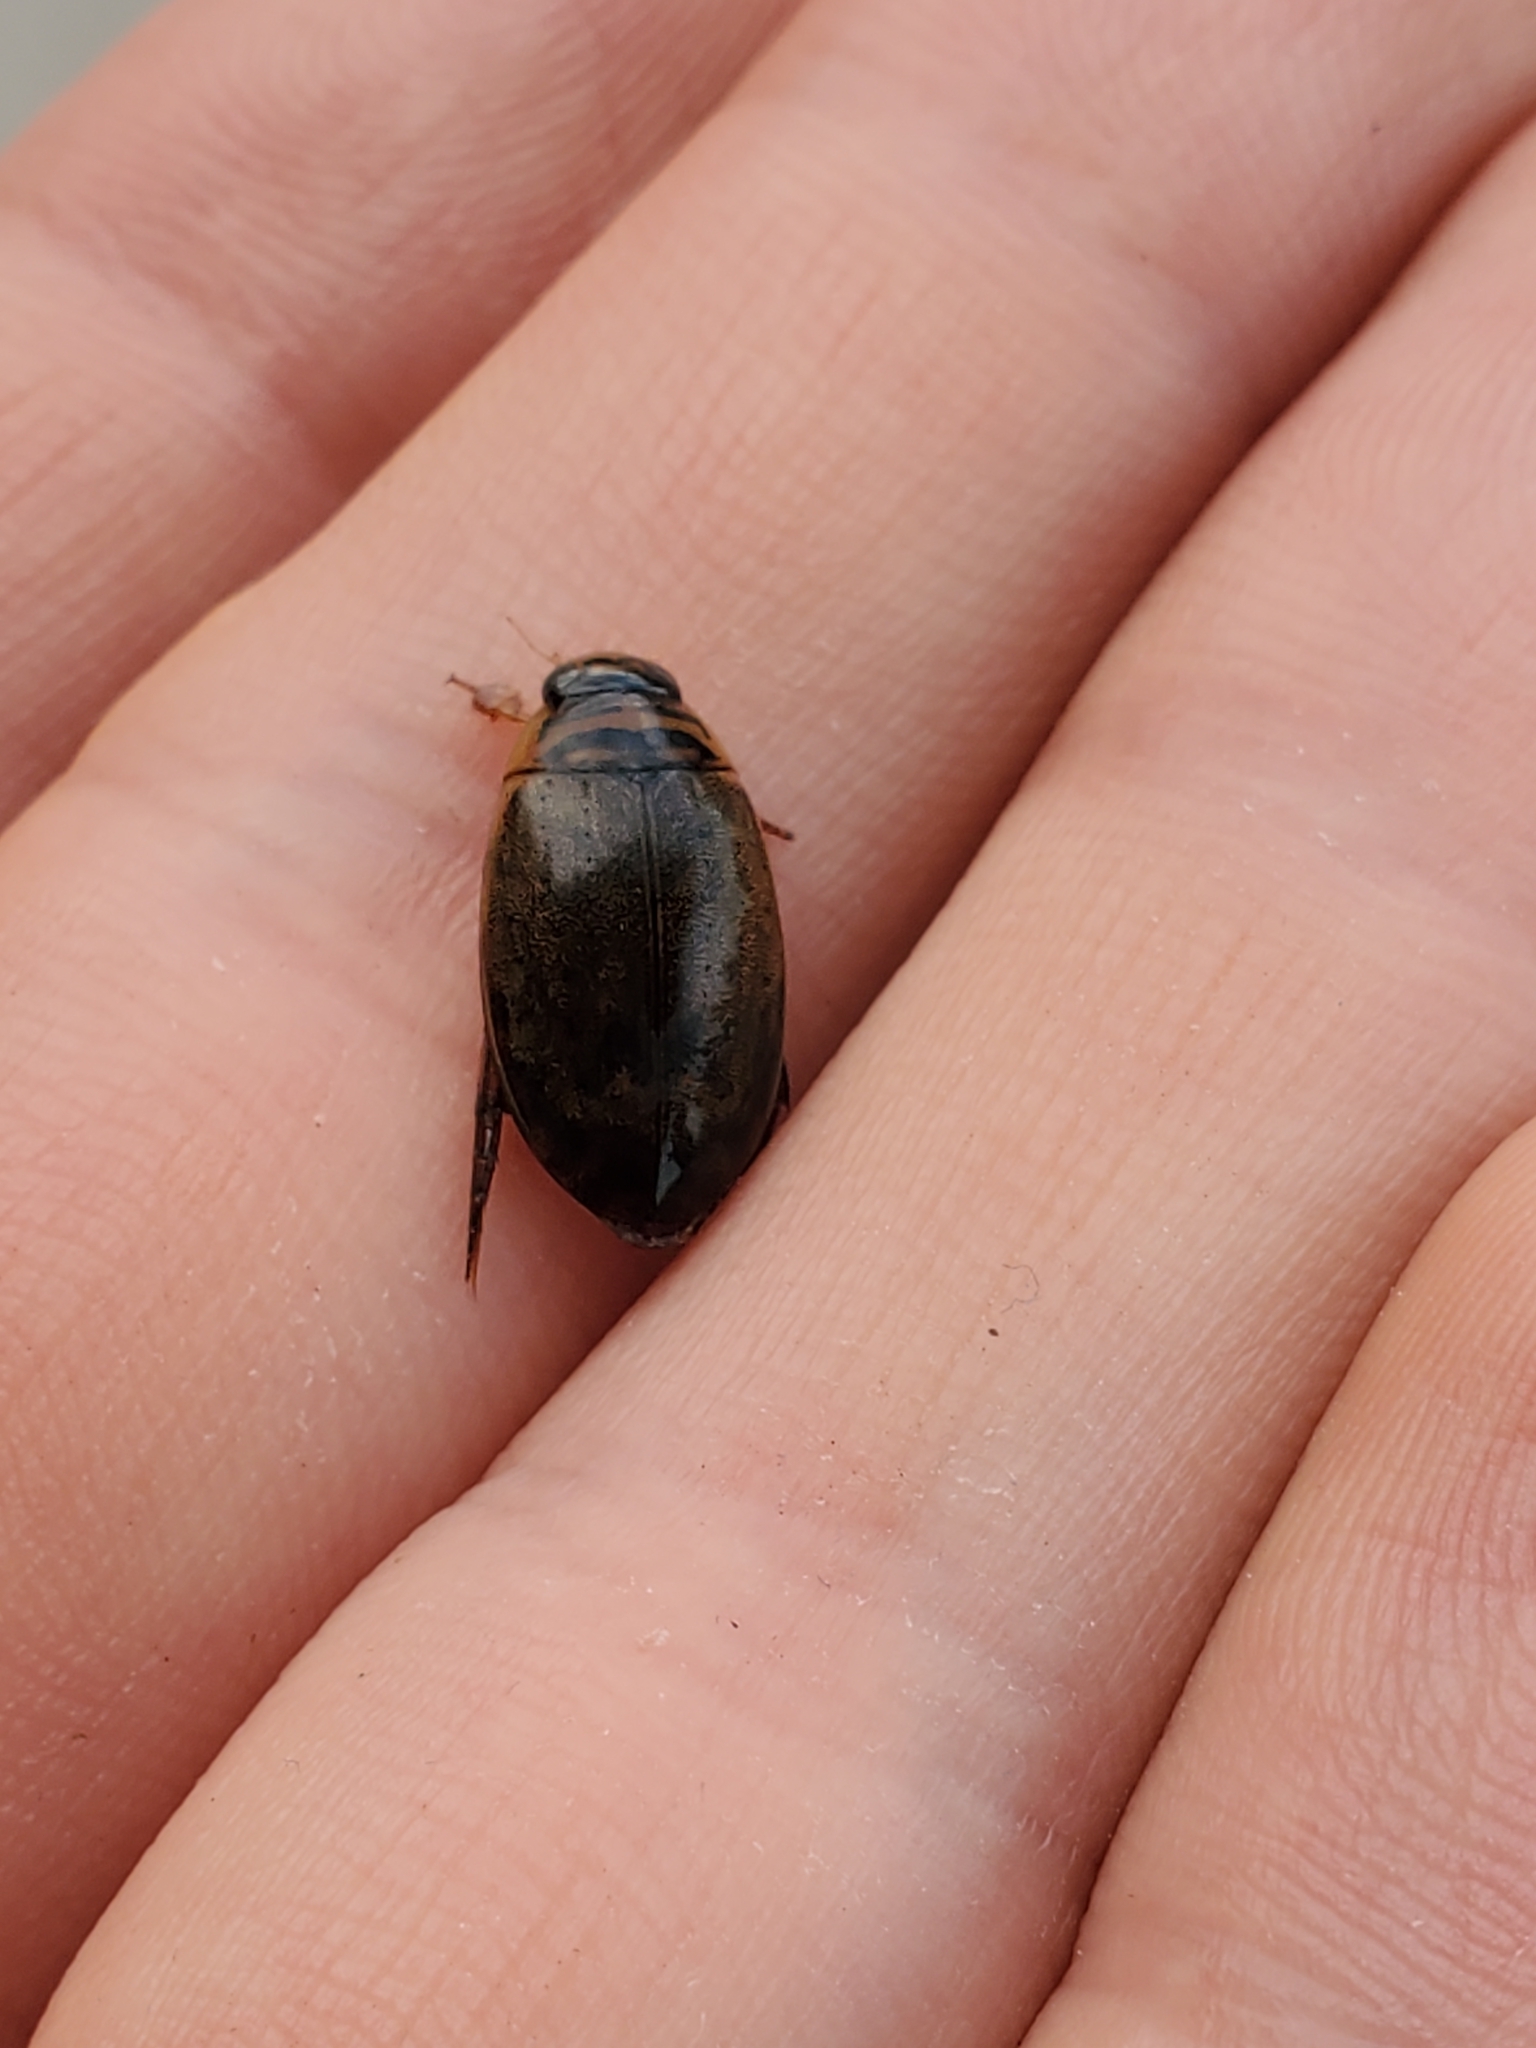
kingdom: Animalia
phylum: Arthropoda
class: Insecta
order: Coleoptera
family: Dytiscidae
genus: Thermonectus
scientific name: Thermonectus nigrofasciatus
